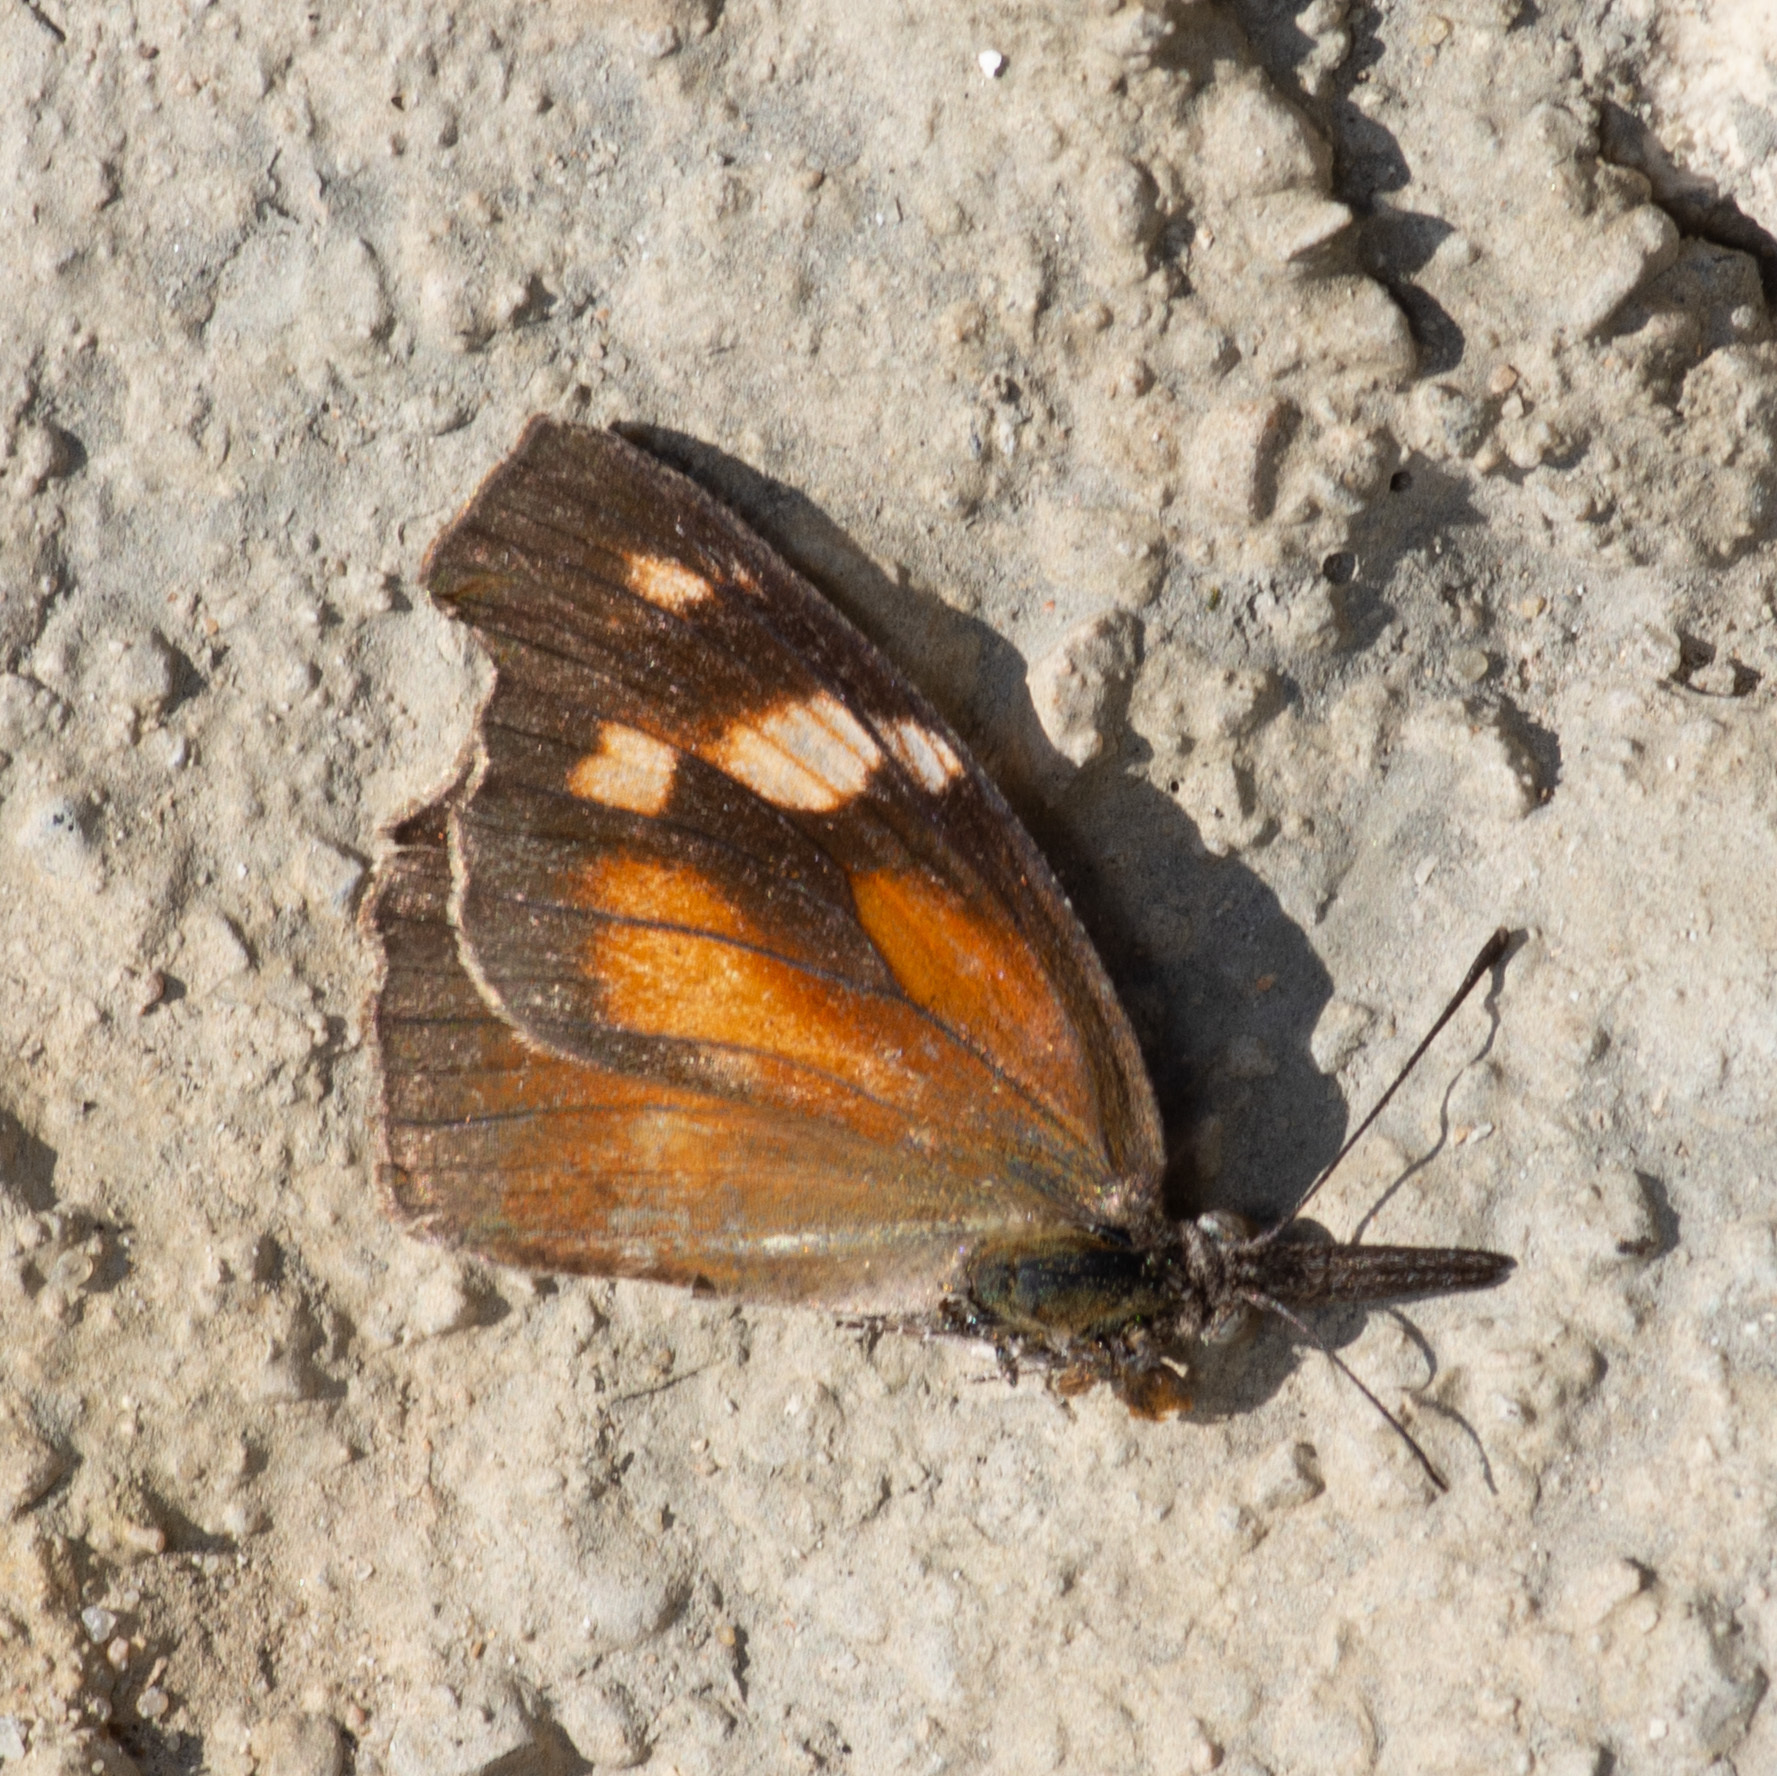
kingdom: Animalia
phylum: Arthropoda
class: Insecta
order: Lepidoptera
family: Nymphalidae
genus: Libytheana
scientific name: Libytheana carinenta
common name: American snout
